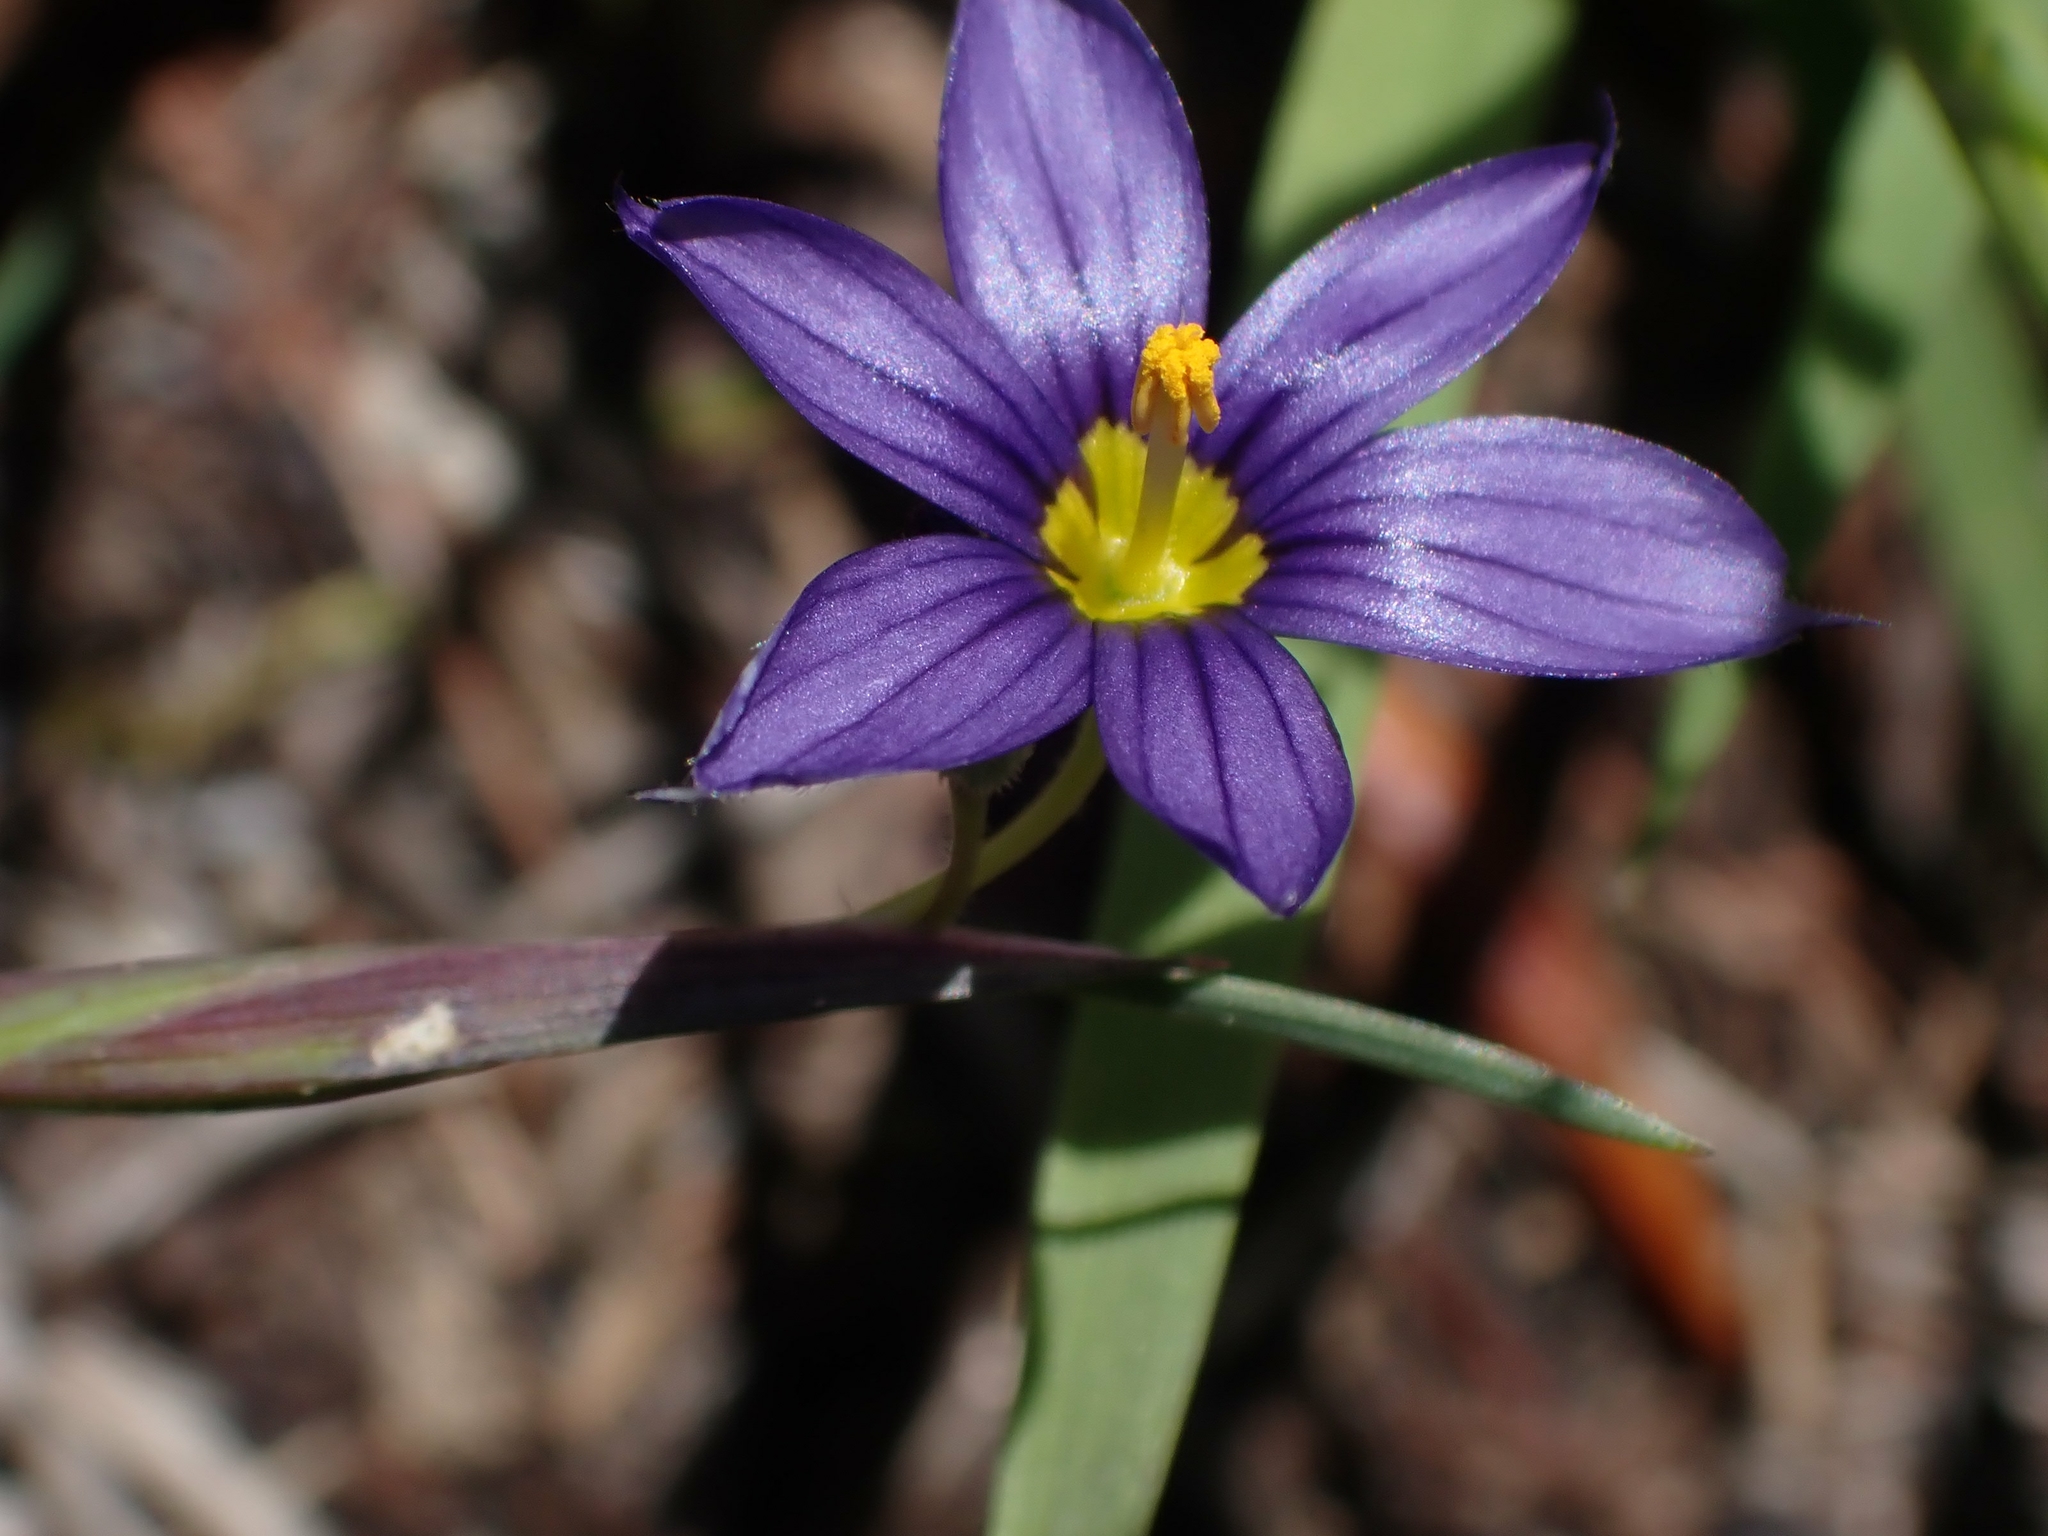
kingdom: Plantae
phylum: Tracheophyta
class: Liliopsida
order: Asparagales
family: Iridaceae
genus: Sisyrinchium
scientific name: Sisyrinchium montanum
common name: American blue-eyed-grass
